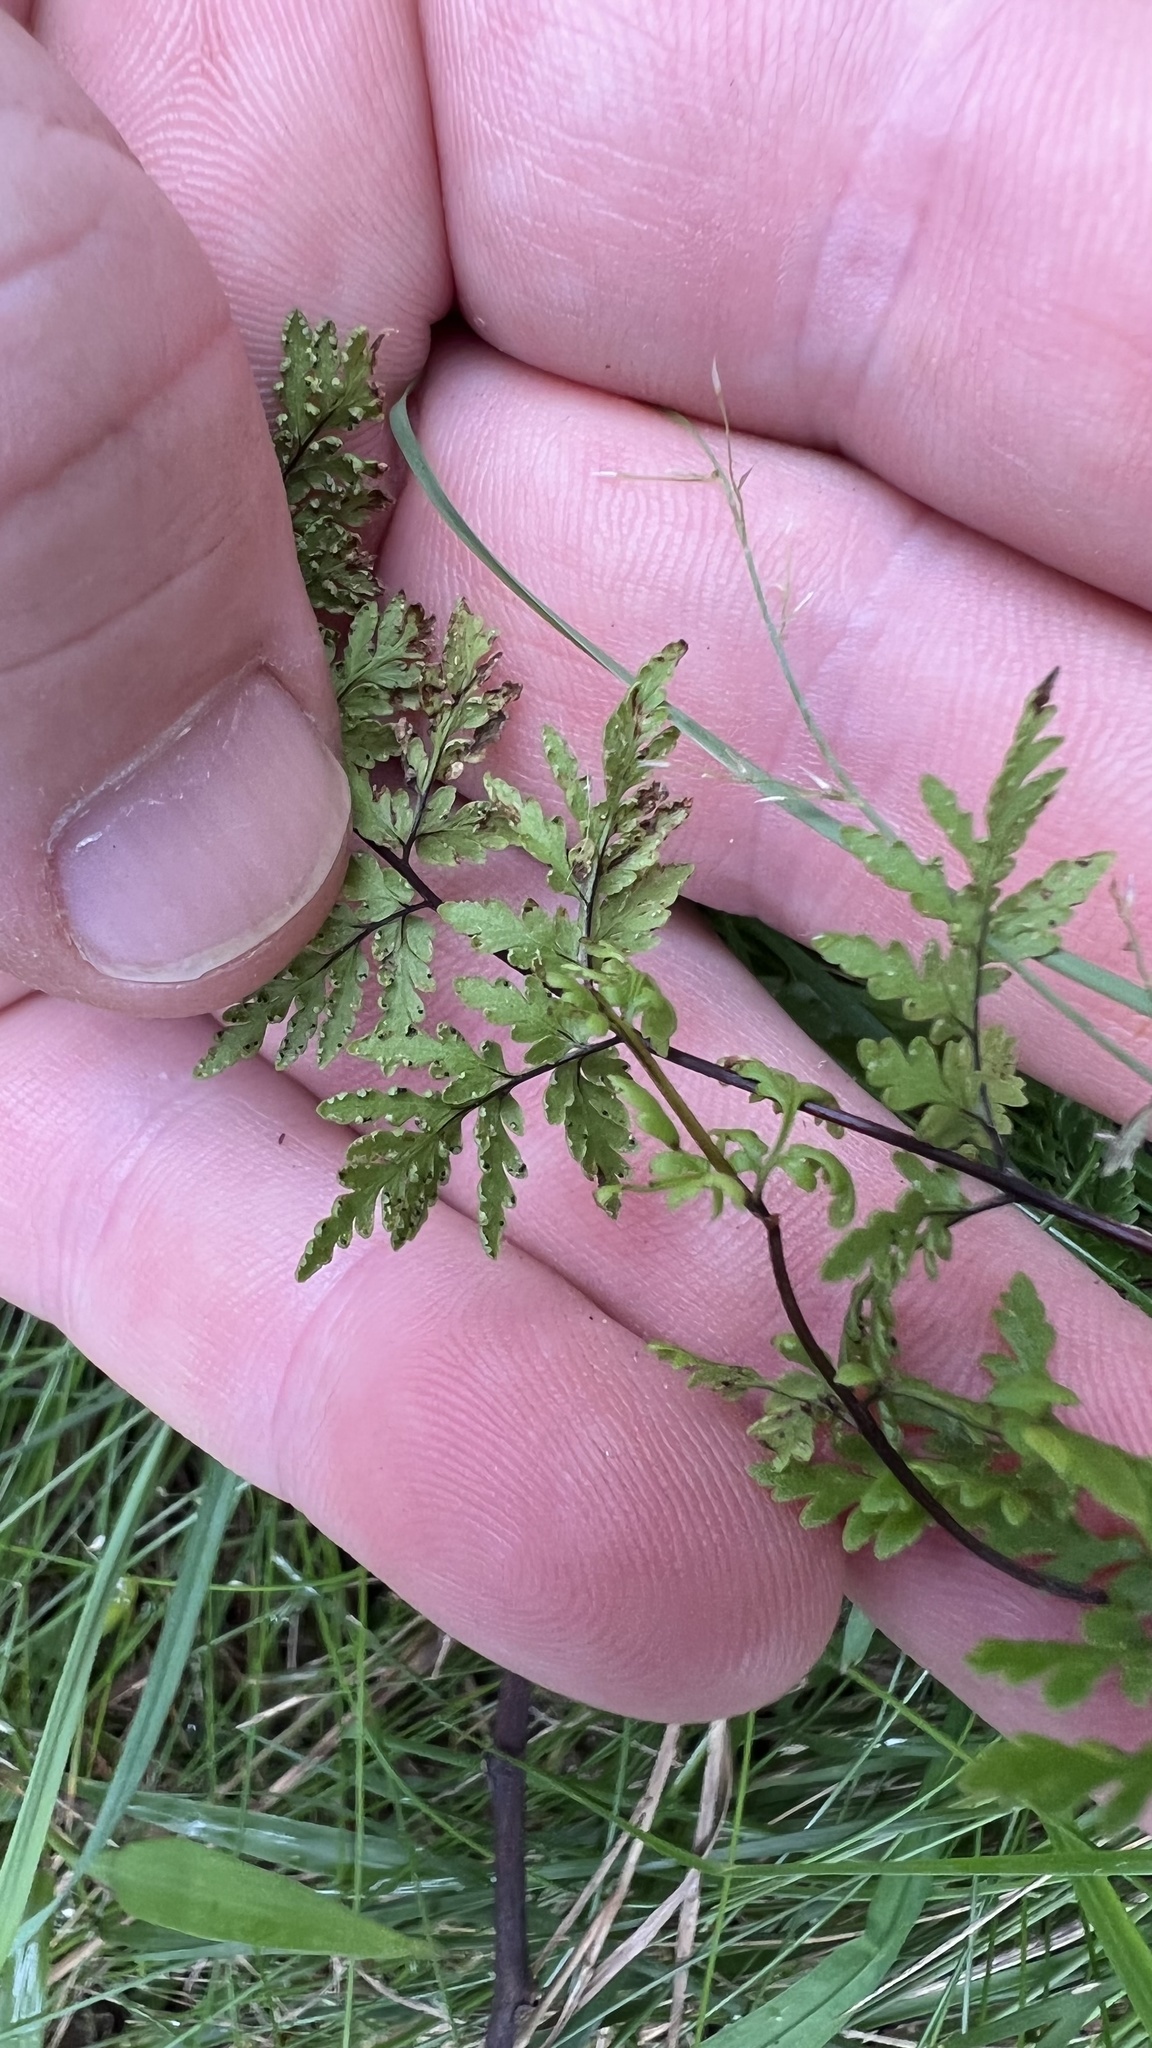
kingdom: Plantae
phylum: Tracheophyta
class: Polypodiopsida
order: Polypodiales
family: Pteridaceae
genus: Cheilanthes
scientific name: Cheilanthes sieberi
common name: Mulga fern
